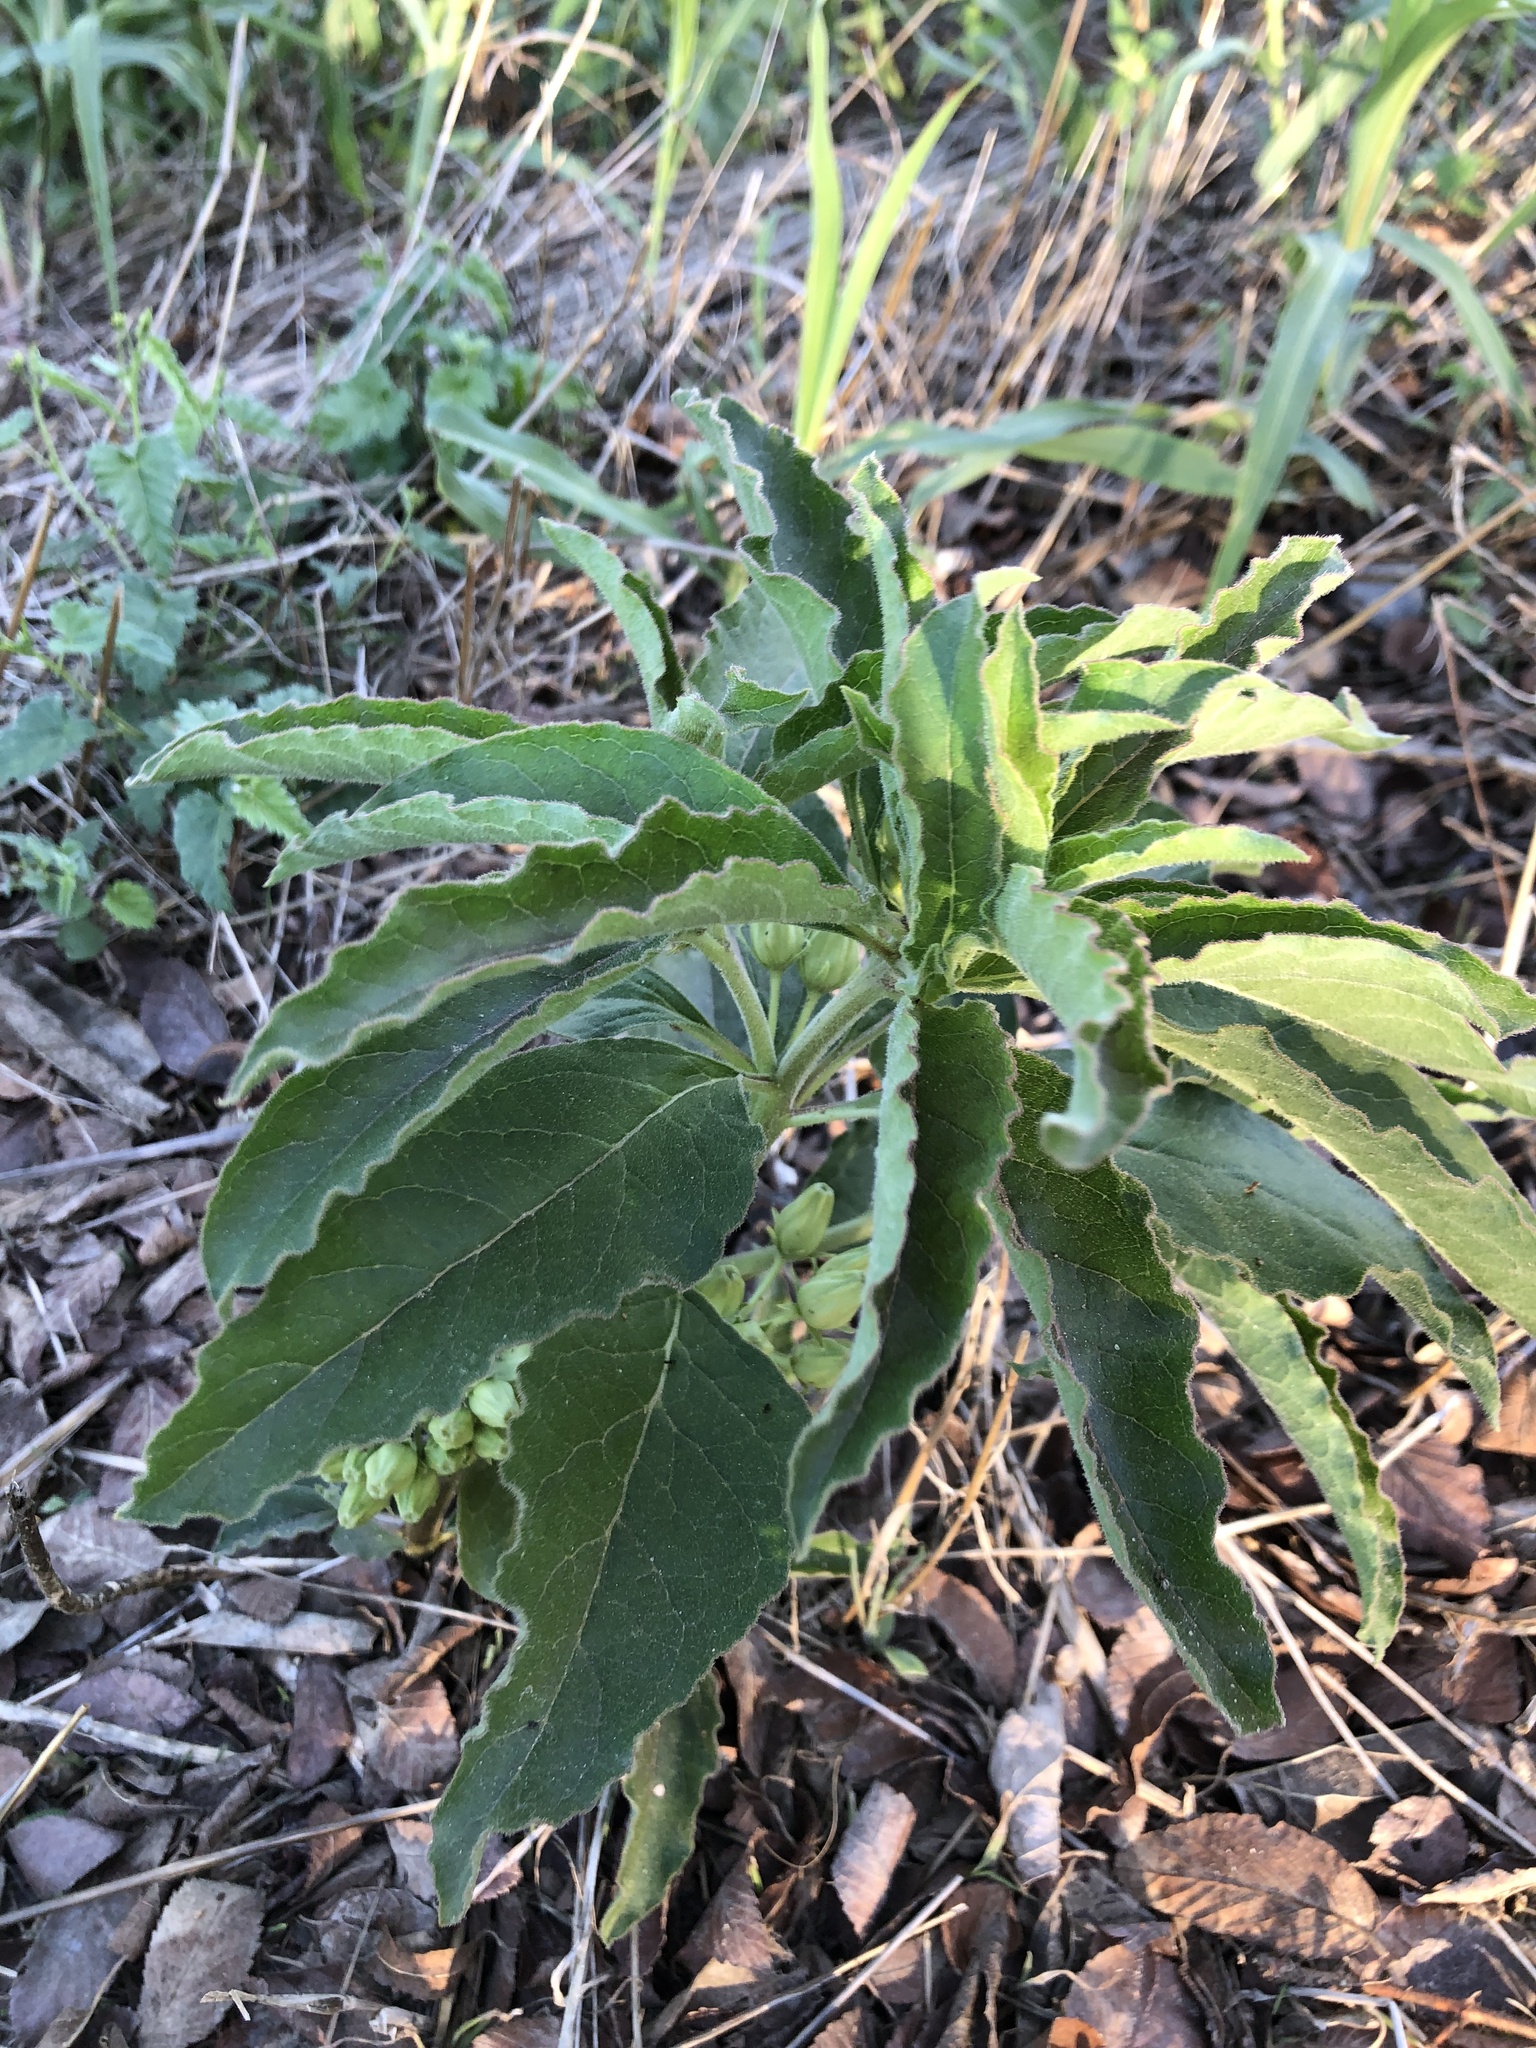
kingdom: Plantae
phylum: Tracheophyta
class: Magnoliopsida
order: Gentianales
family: Apocynaceae
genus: Asclepias
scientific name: Asclepias oenotheroides
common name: Zizotes milkweed
